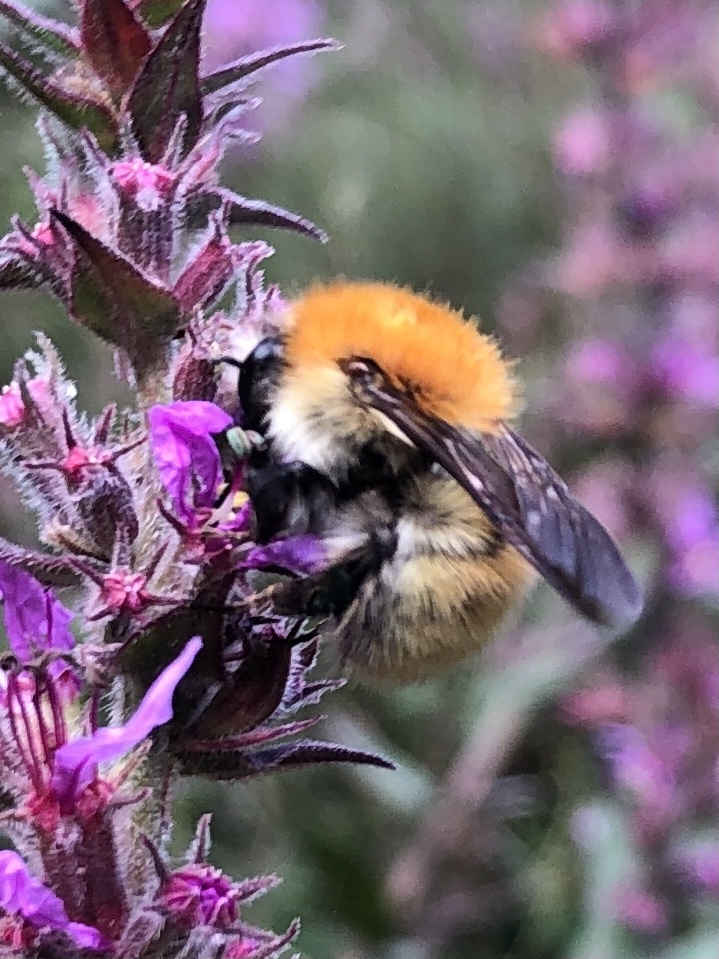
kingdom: Animalia
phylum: Arthropoda
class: Insecta
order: Hymenoptera
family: Apidae
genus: Bombus
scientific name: Bombus pascuorum
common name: Common carder bee
